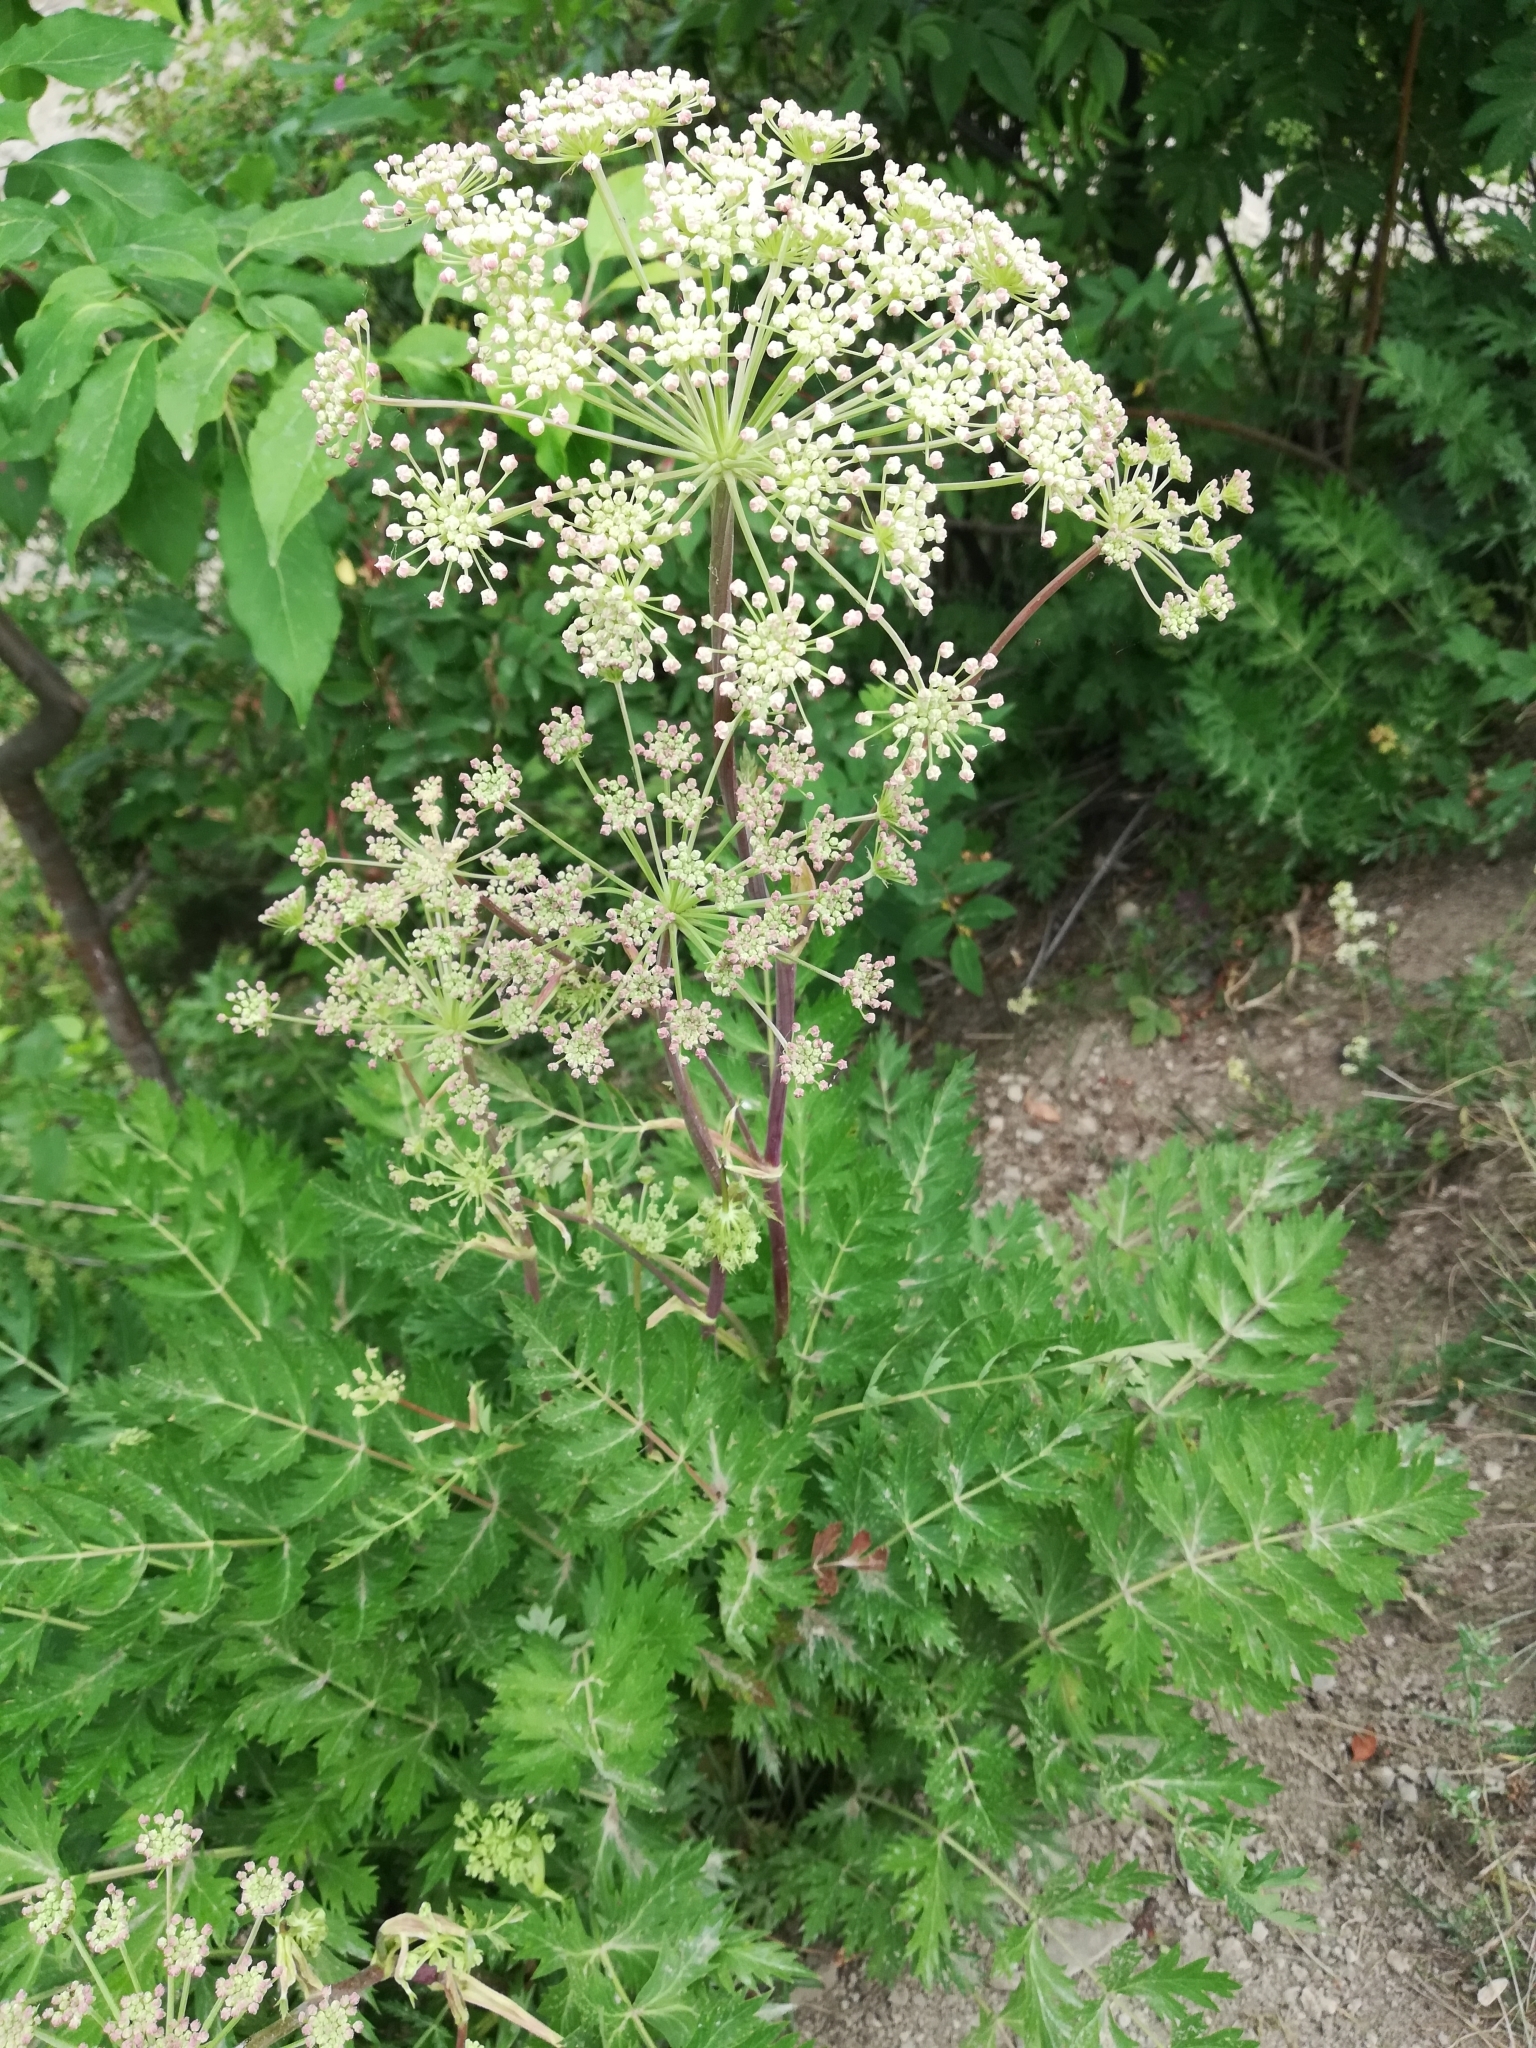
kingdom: Plantae
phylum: Tracheophyta
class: Magnoliopsida
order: Apiales
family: Apiaceae
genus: Seseli
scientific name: Seseli krylovii
